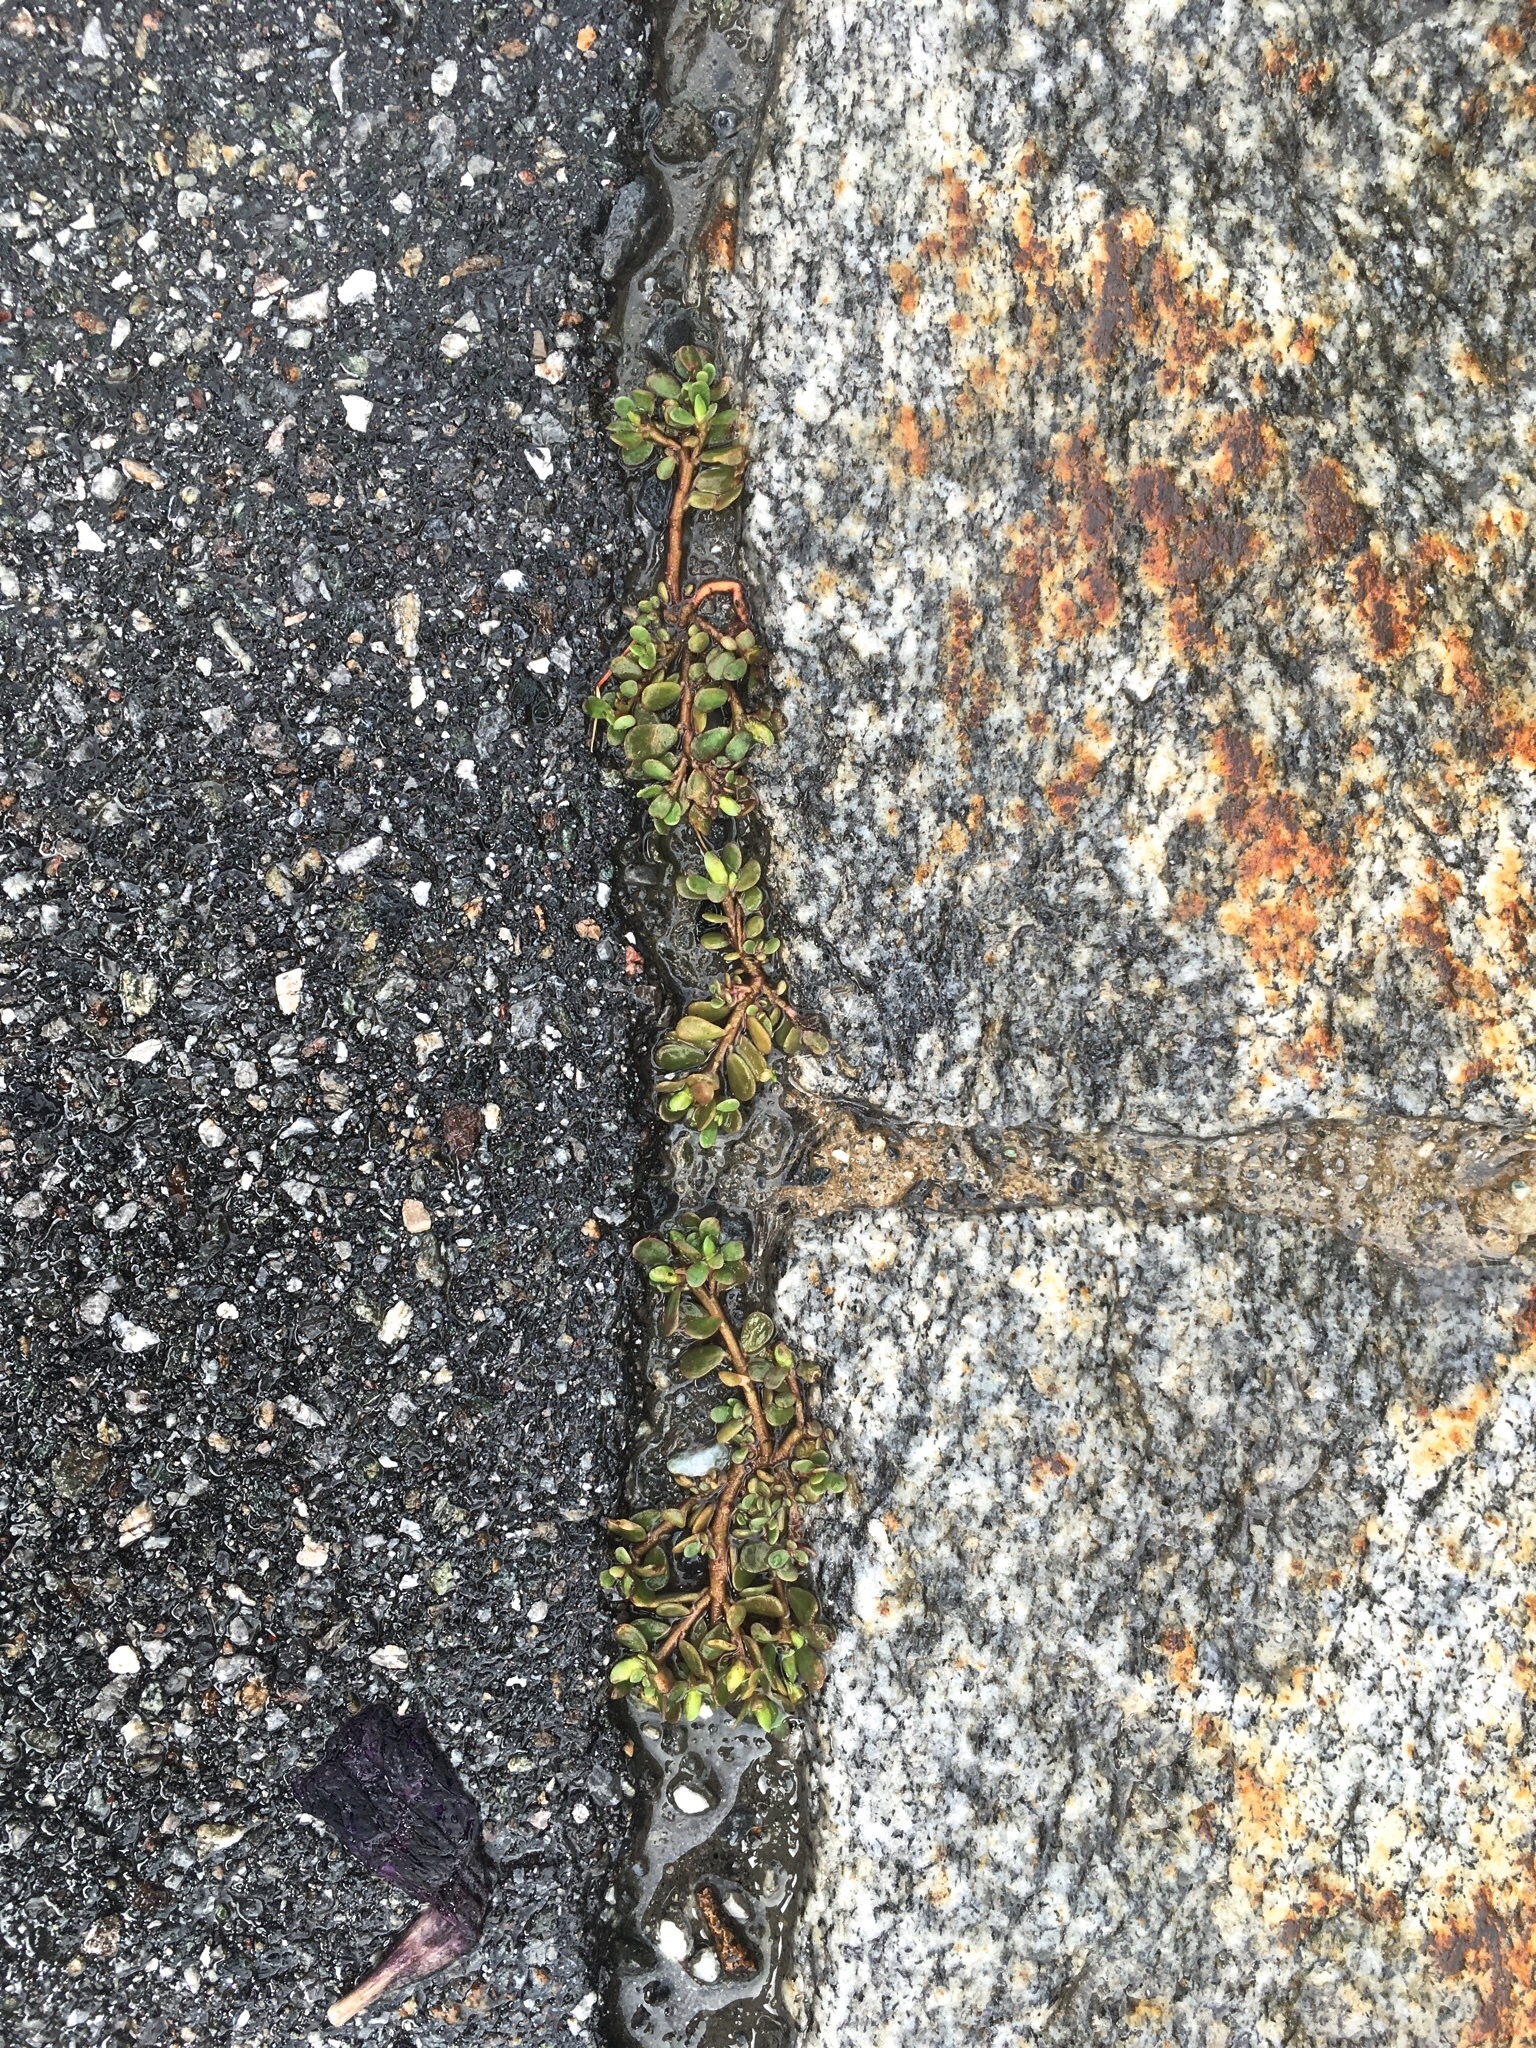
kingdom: Plantae
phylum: Tracheophyta
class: Magnoliopsida
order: Caryophyllales
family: Portulacaceae
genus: Portulaca
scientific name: Portulaca oleracea
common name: Common purslane
